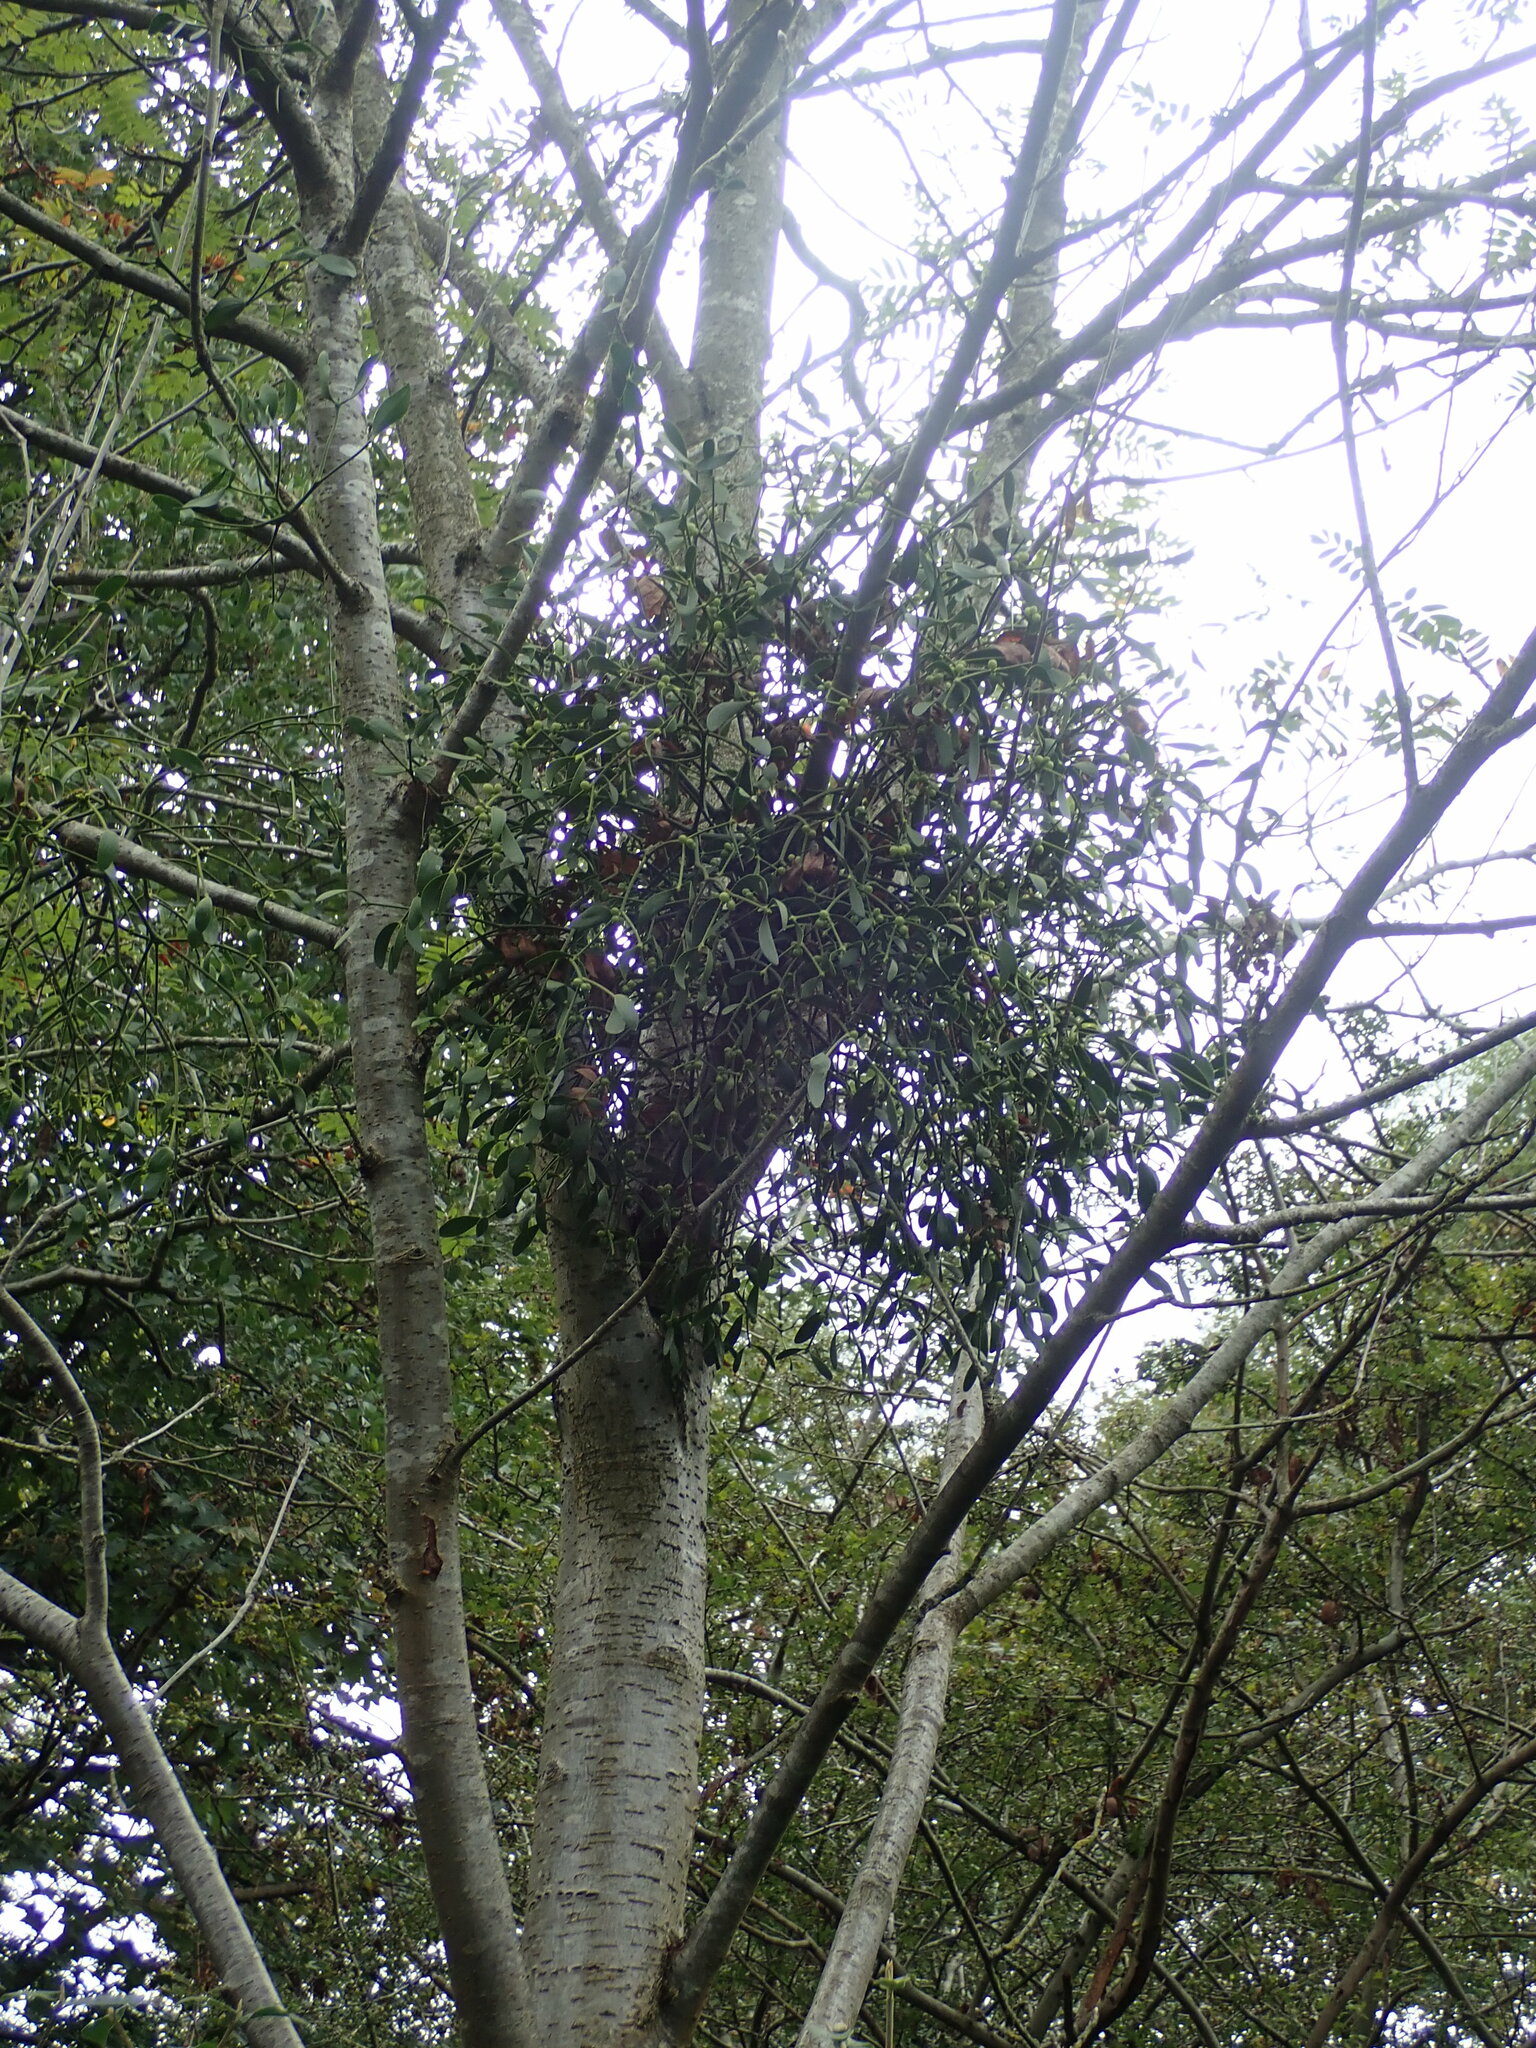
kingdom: Plantae
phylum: Tracheophyta
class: Magnoliopsida
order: Santalales
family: Viscaceae
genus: Viscum
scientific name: Viscum album
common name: Mistletoe
